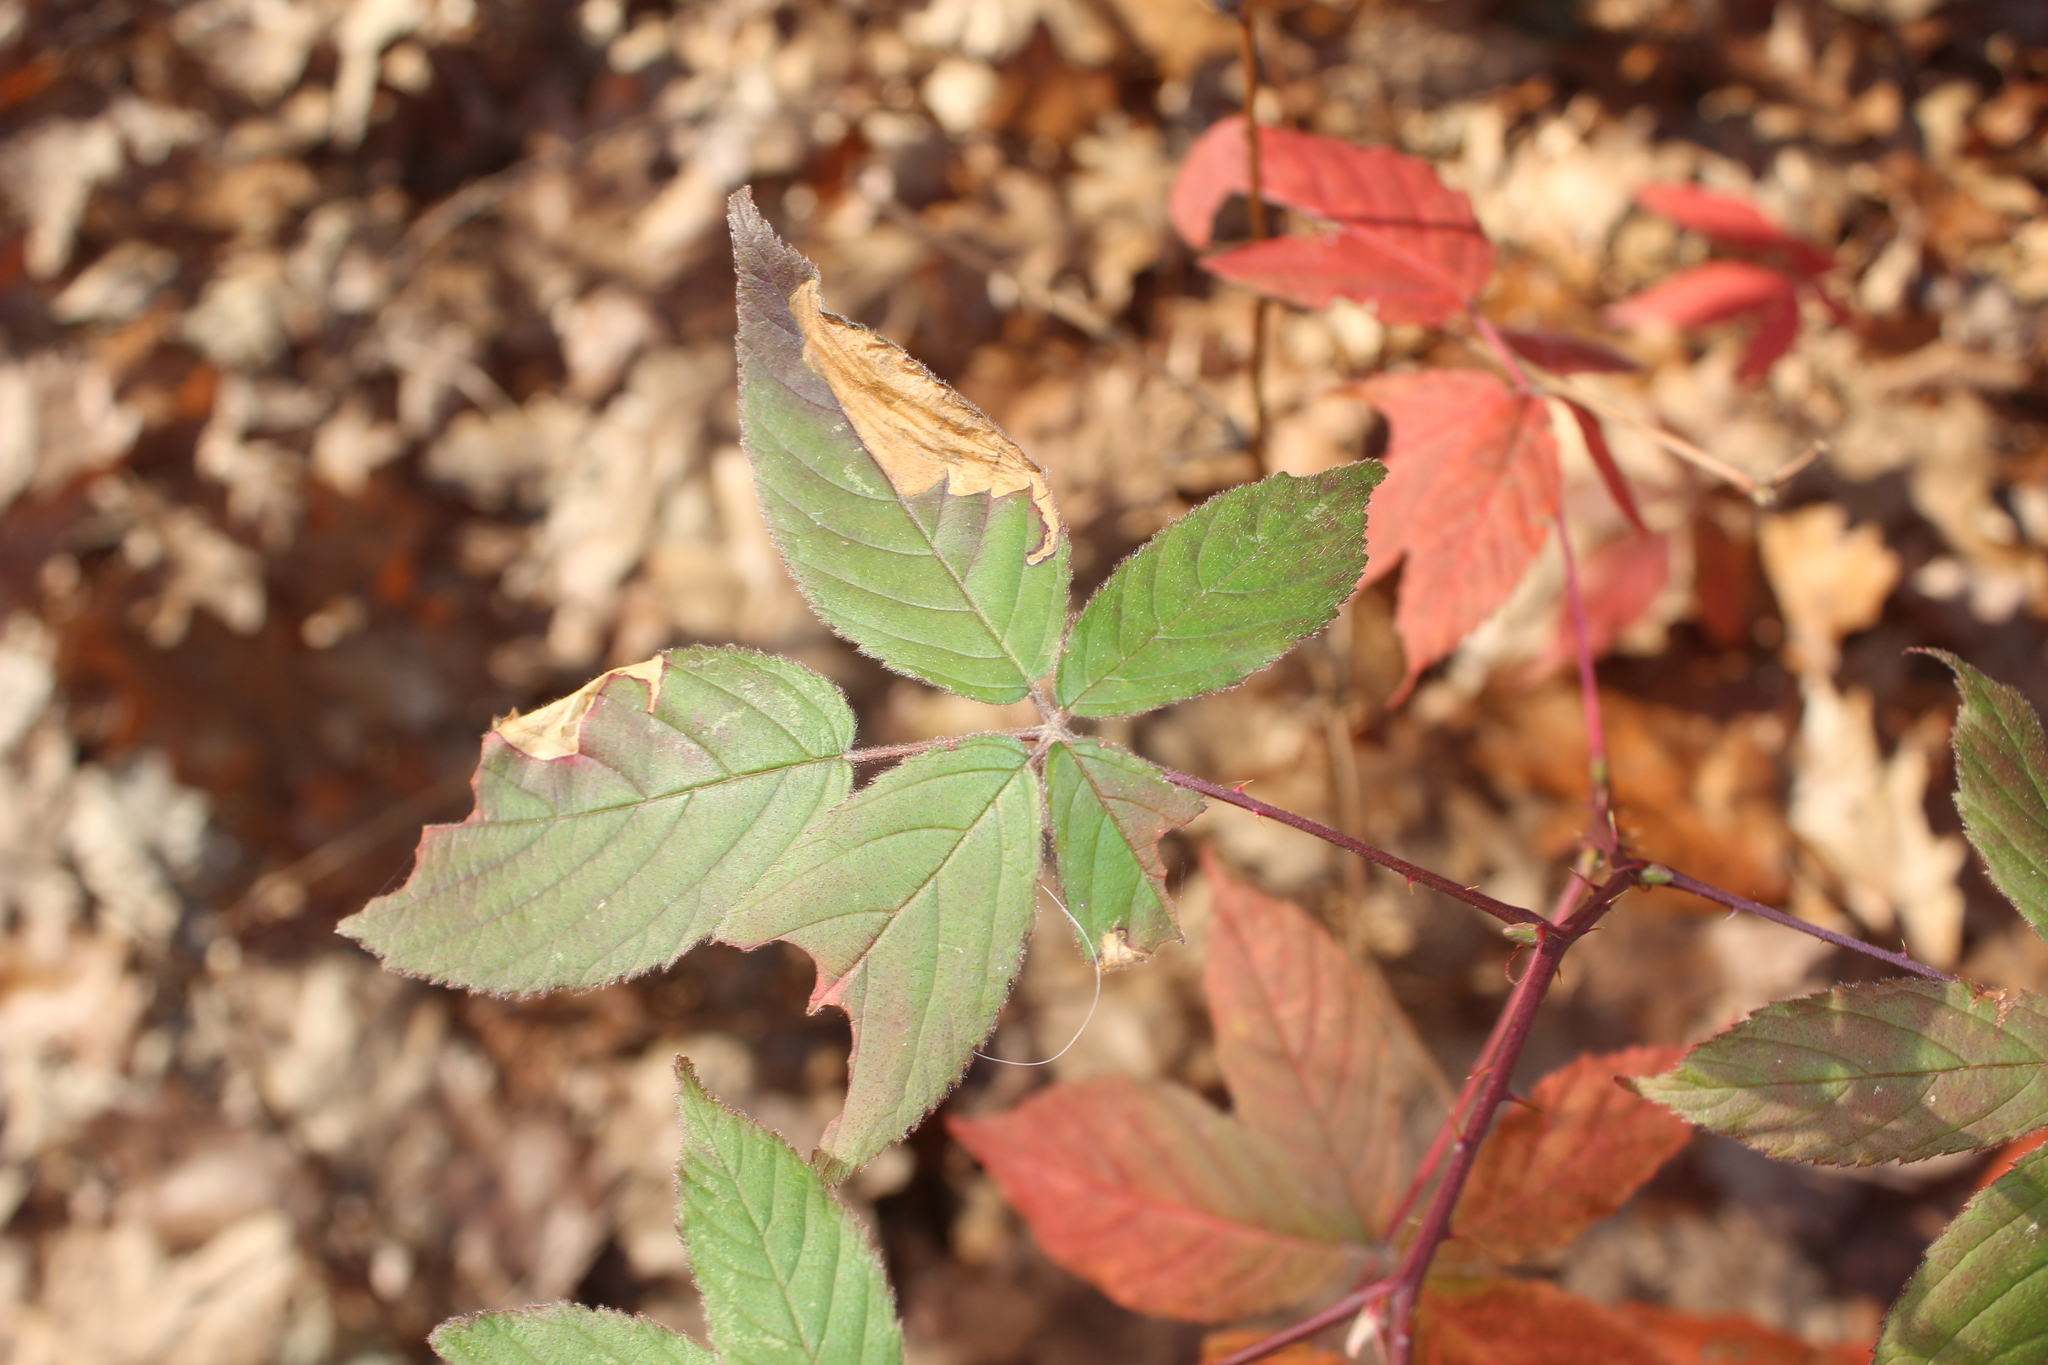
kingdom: Animalia
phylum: Arthropoda
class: Insecta
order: Hymenoptera
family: Tenthredinidae
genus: Metallus
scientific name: Metallus rohweri
